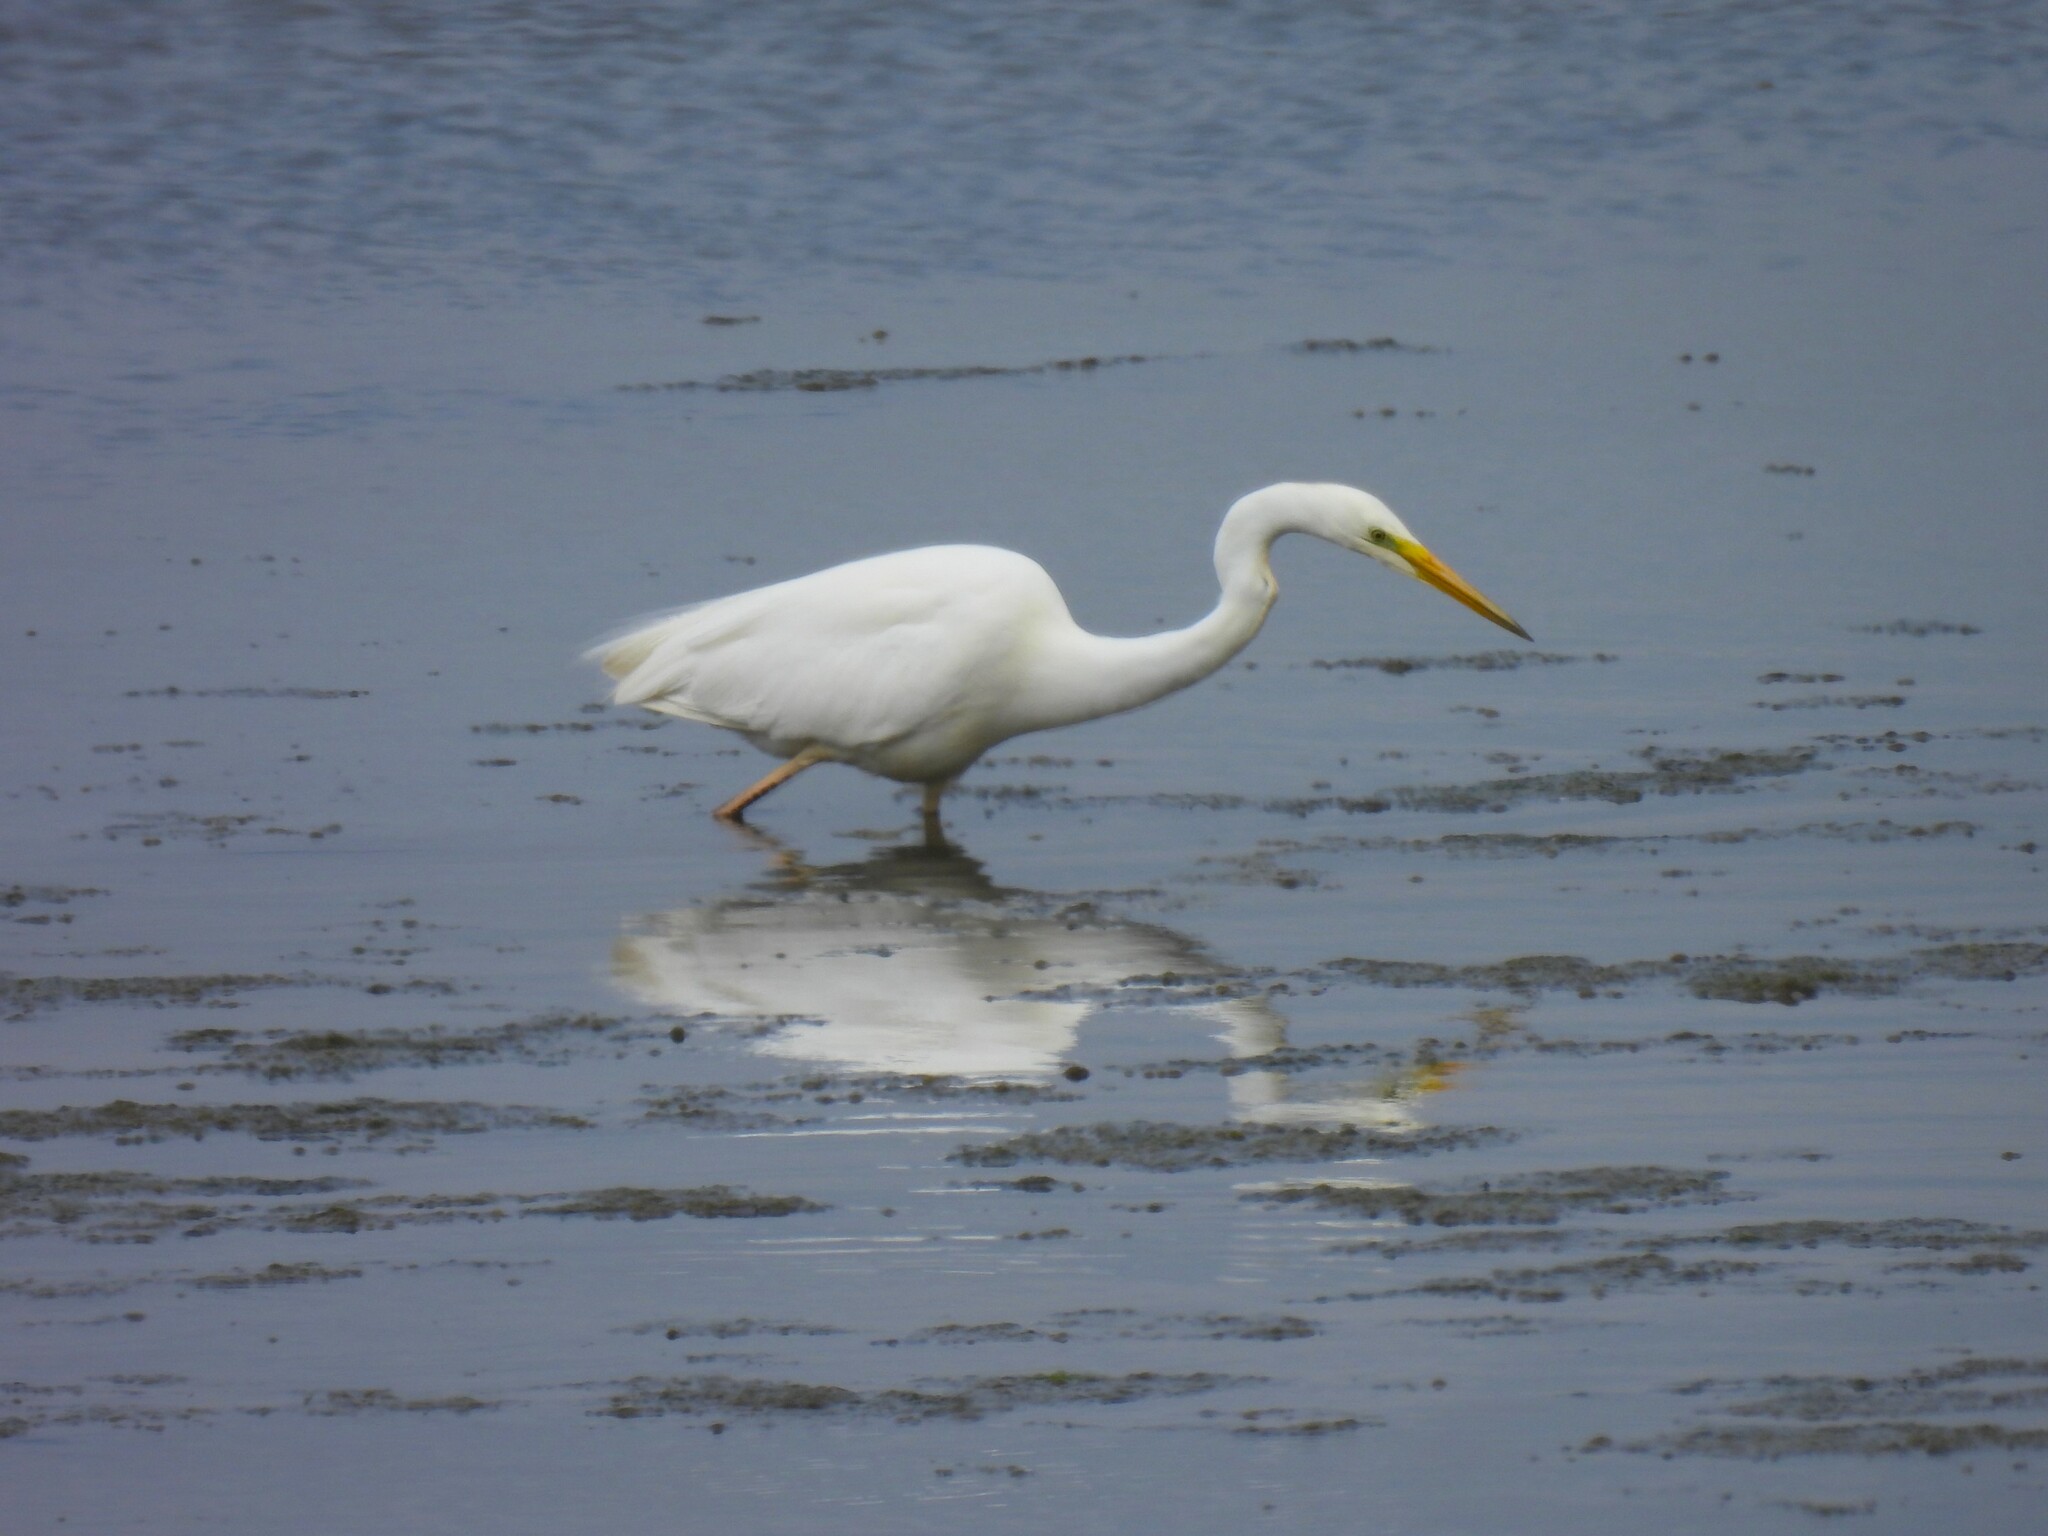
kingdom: Animalia
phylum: Chordata
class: Aves
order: Pelecaniformes
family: Ardeidae
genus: Ardea
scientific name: Ardea alba
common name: Great egret
